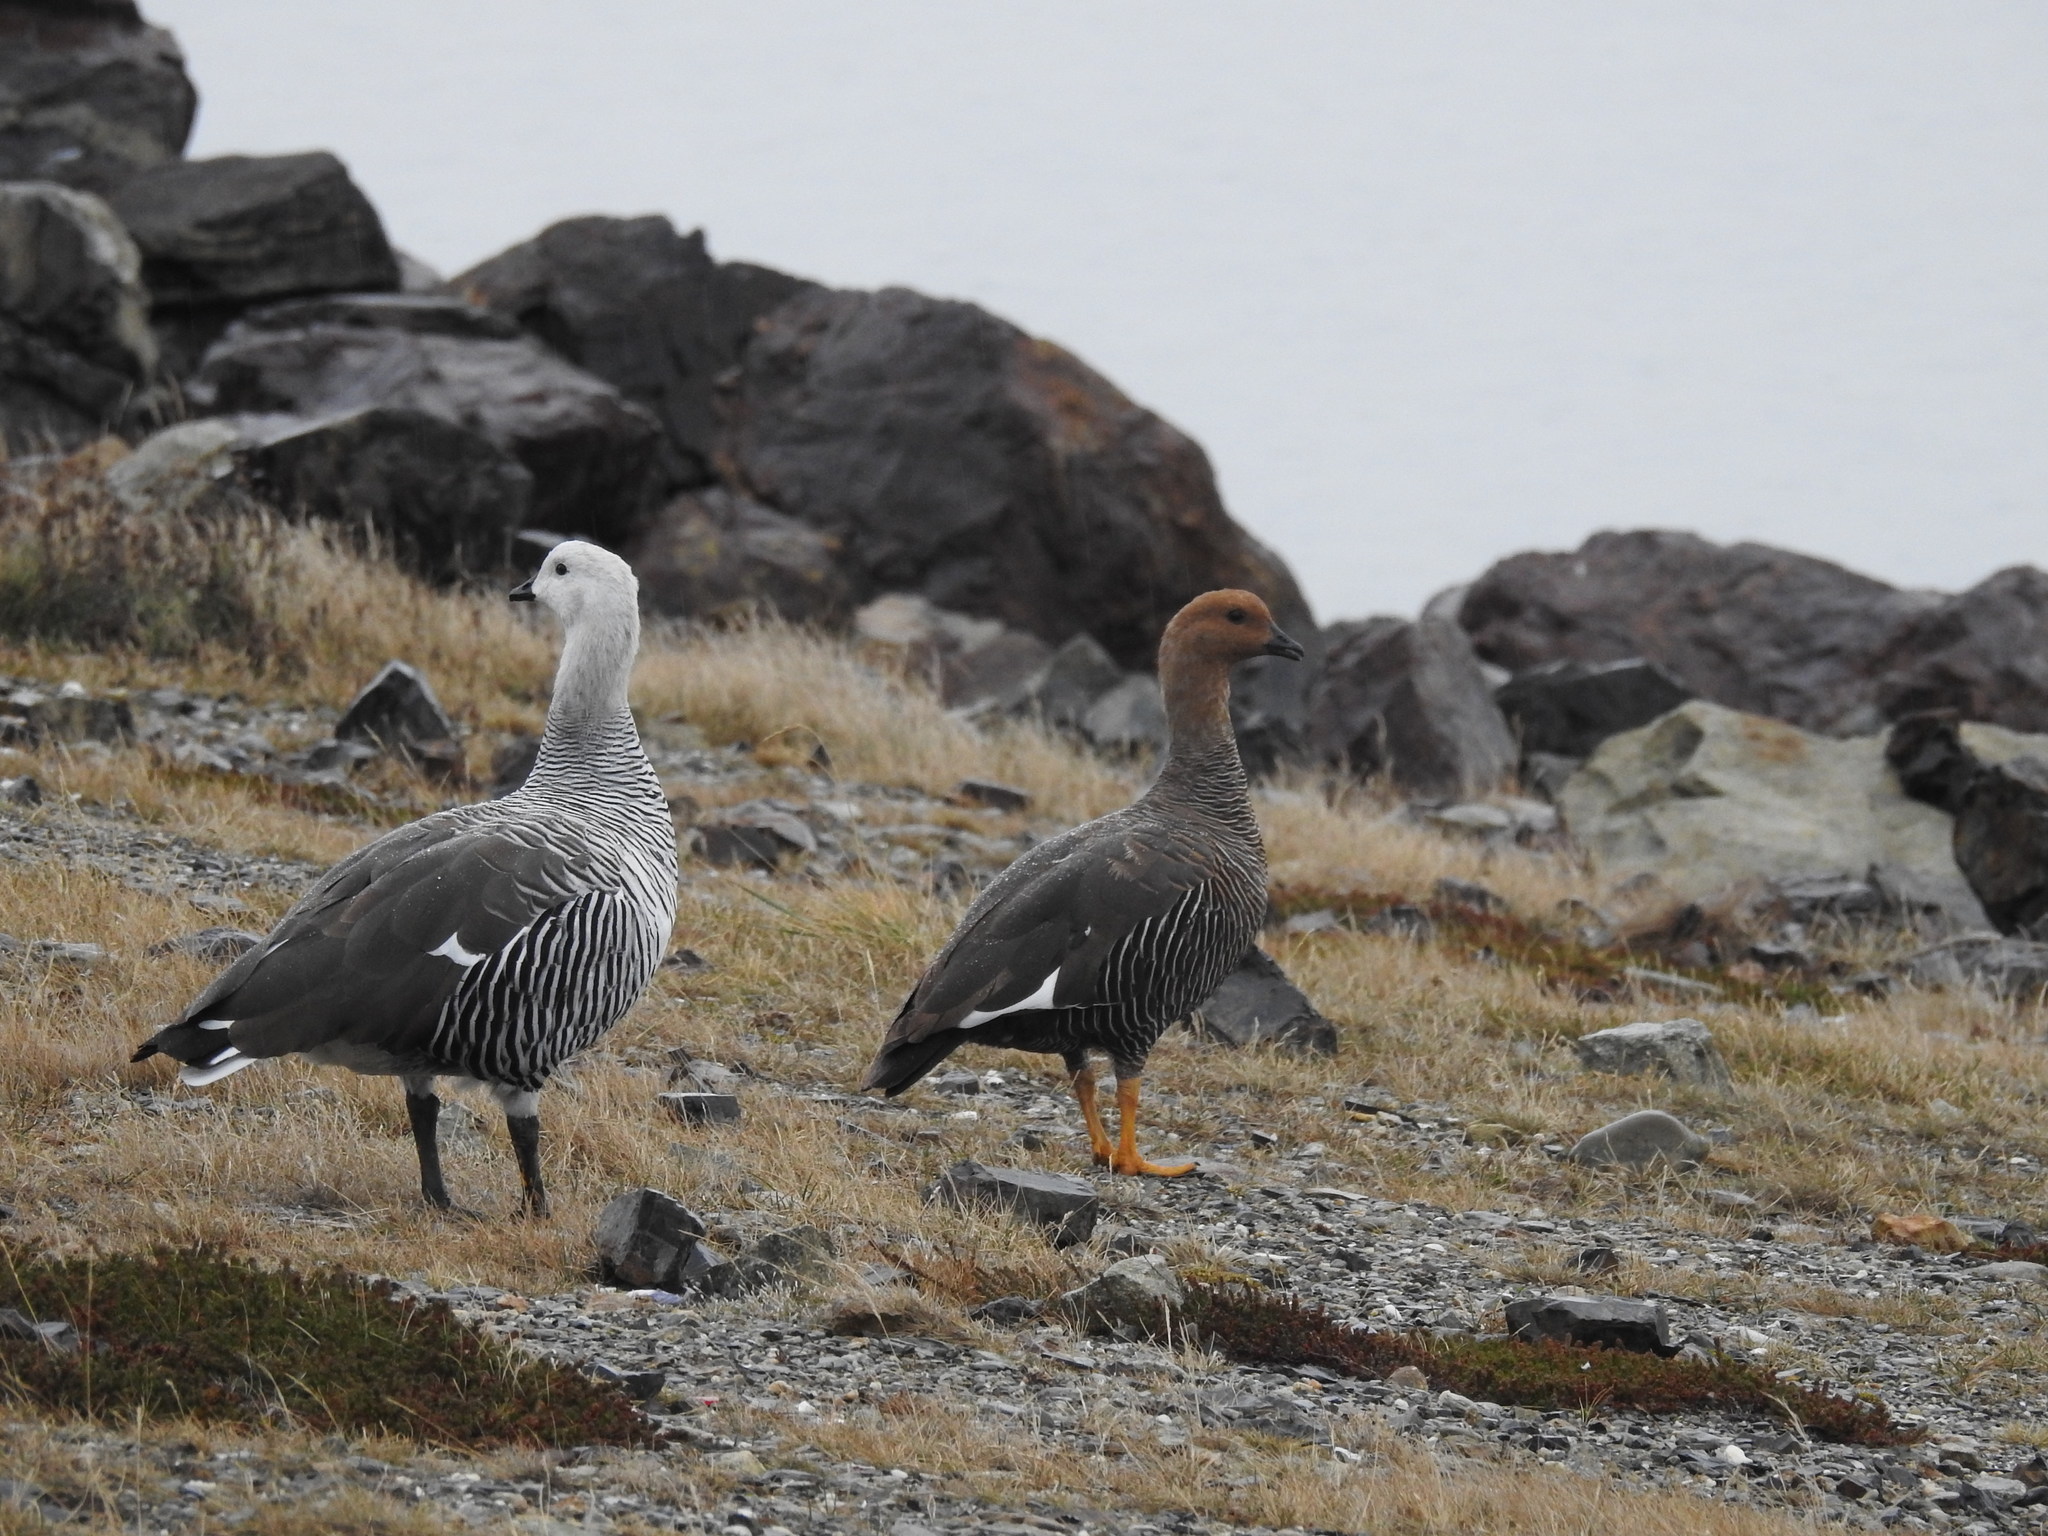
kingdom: Animalia
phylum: Chordata
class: Aves
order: Anseriformes
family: Anatidae
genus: Chloephaga
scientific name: Chloephaga picta
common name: Upland goose
